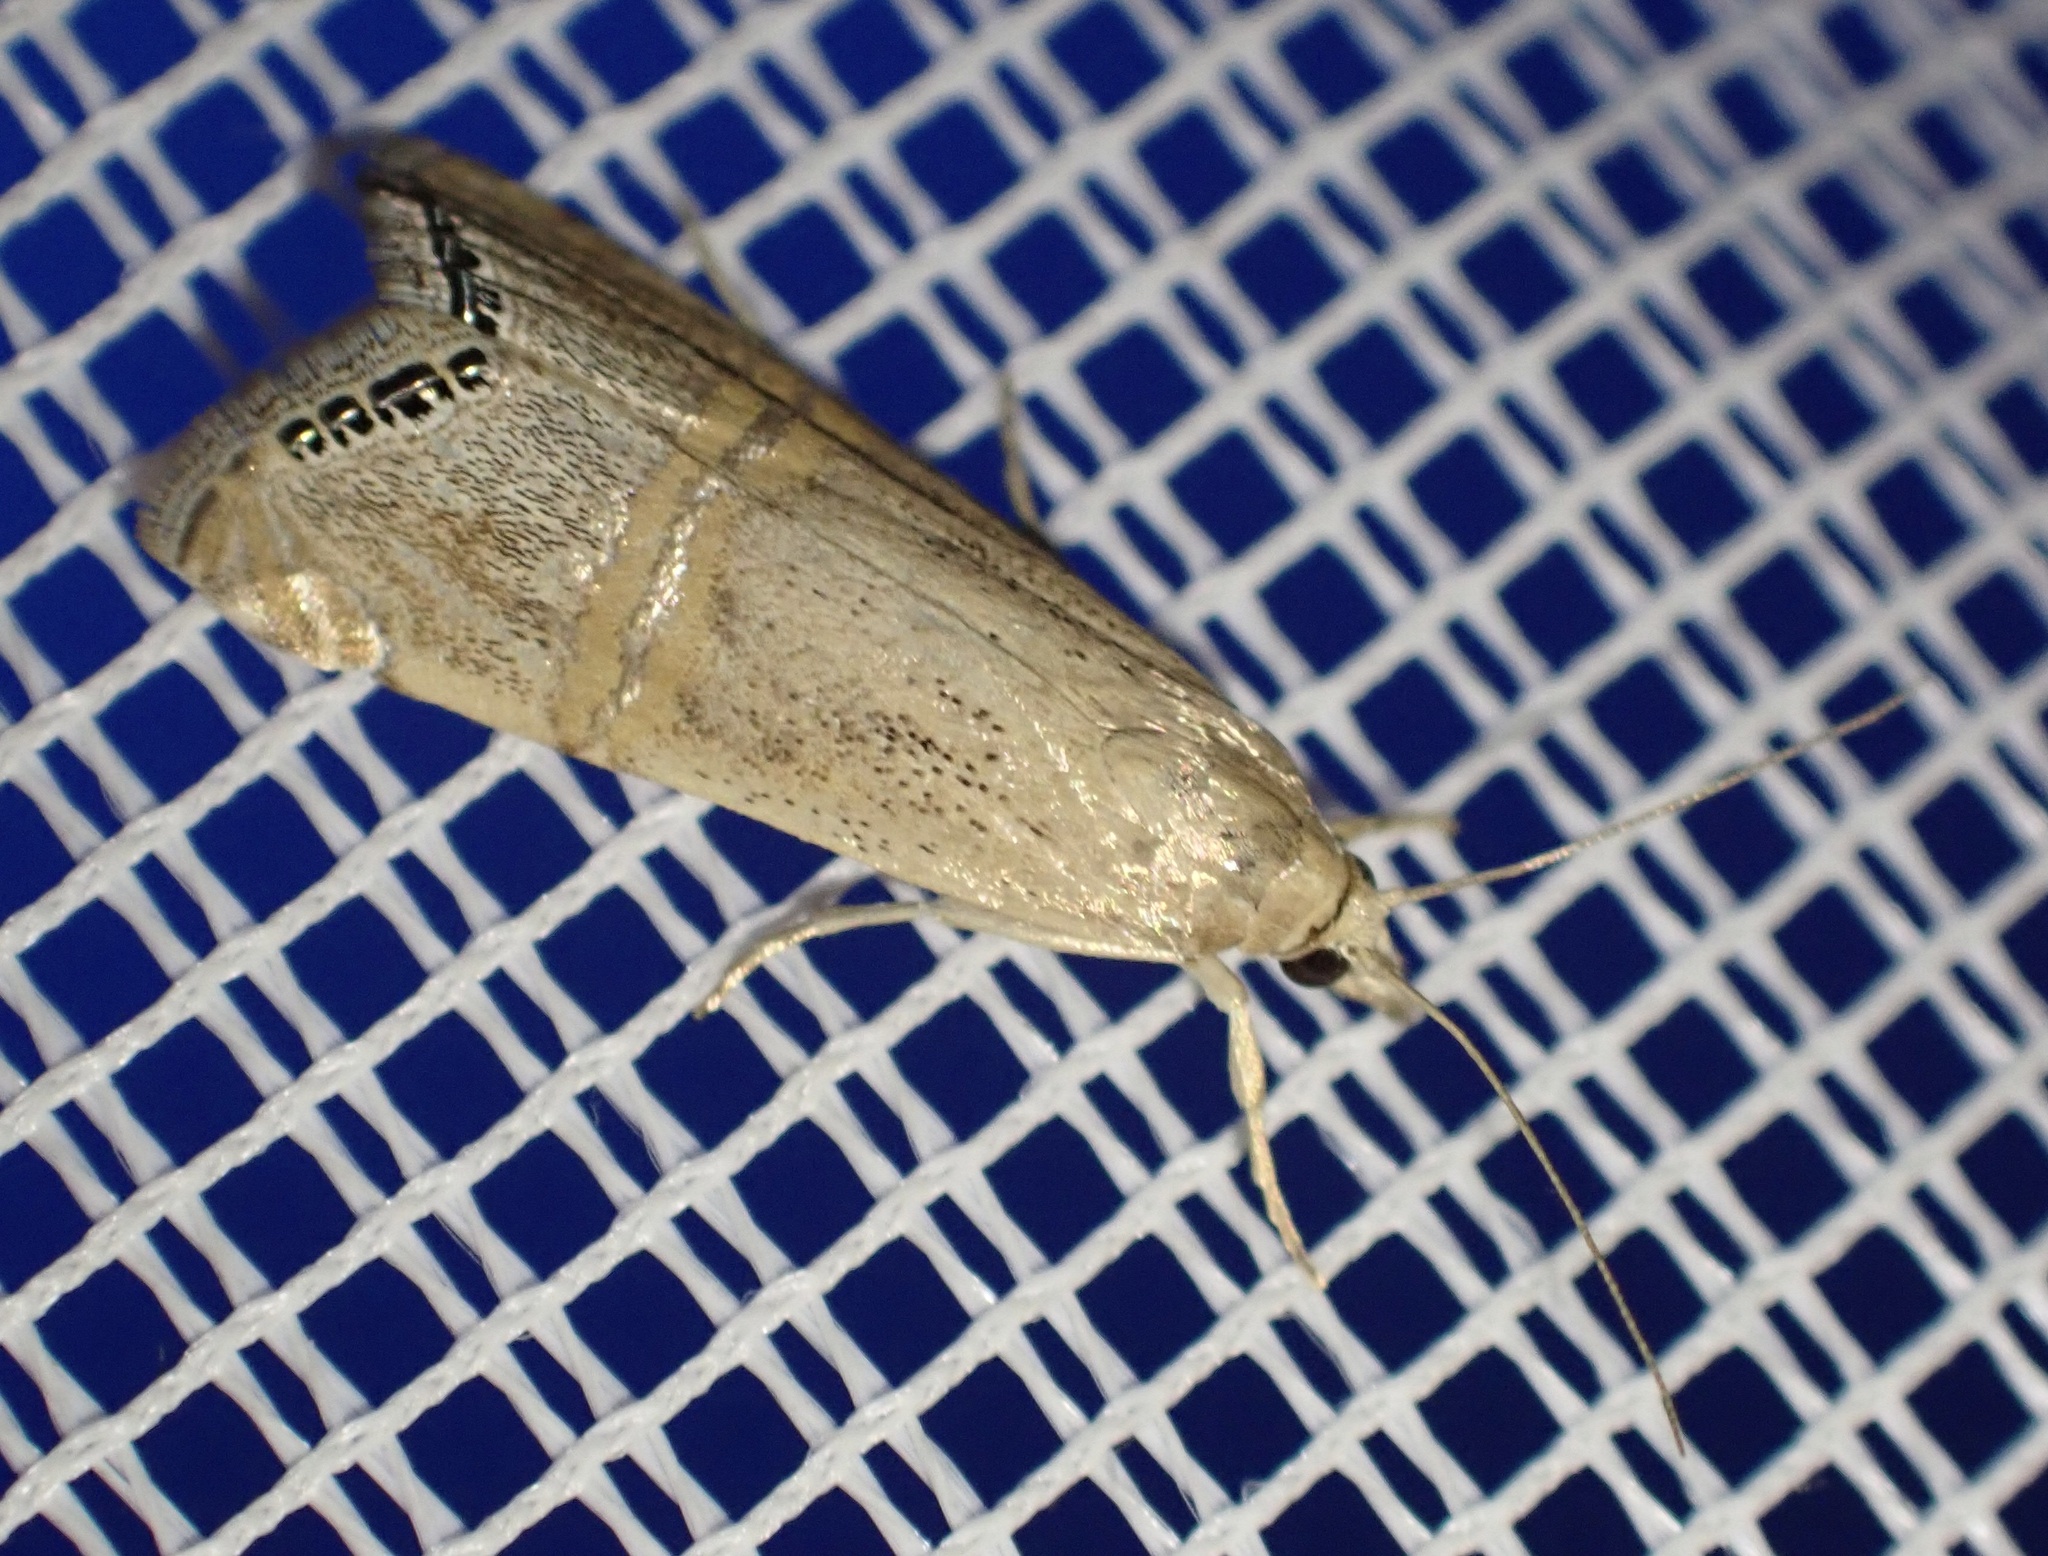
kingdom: Animalia
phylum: Arthropoda
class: Insecta
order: Lepidoptera
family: Crambidae
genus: Euchromius
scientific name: Euchromius ocellea
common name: Necklace veneer moth
